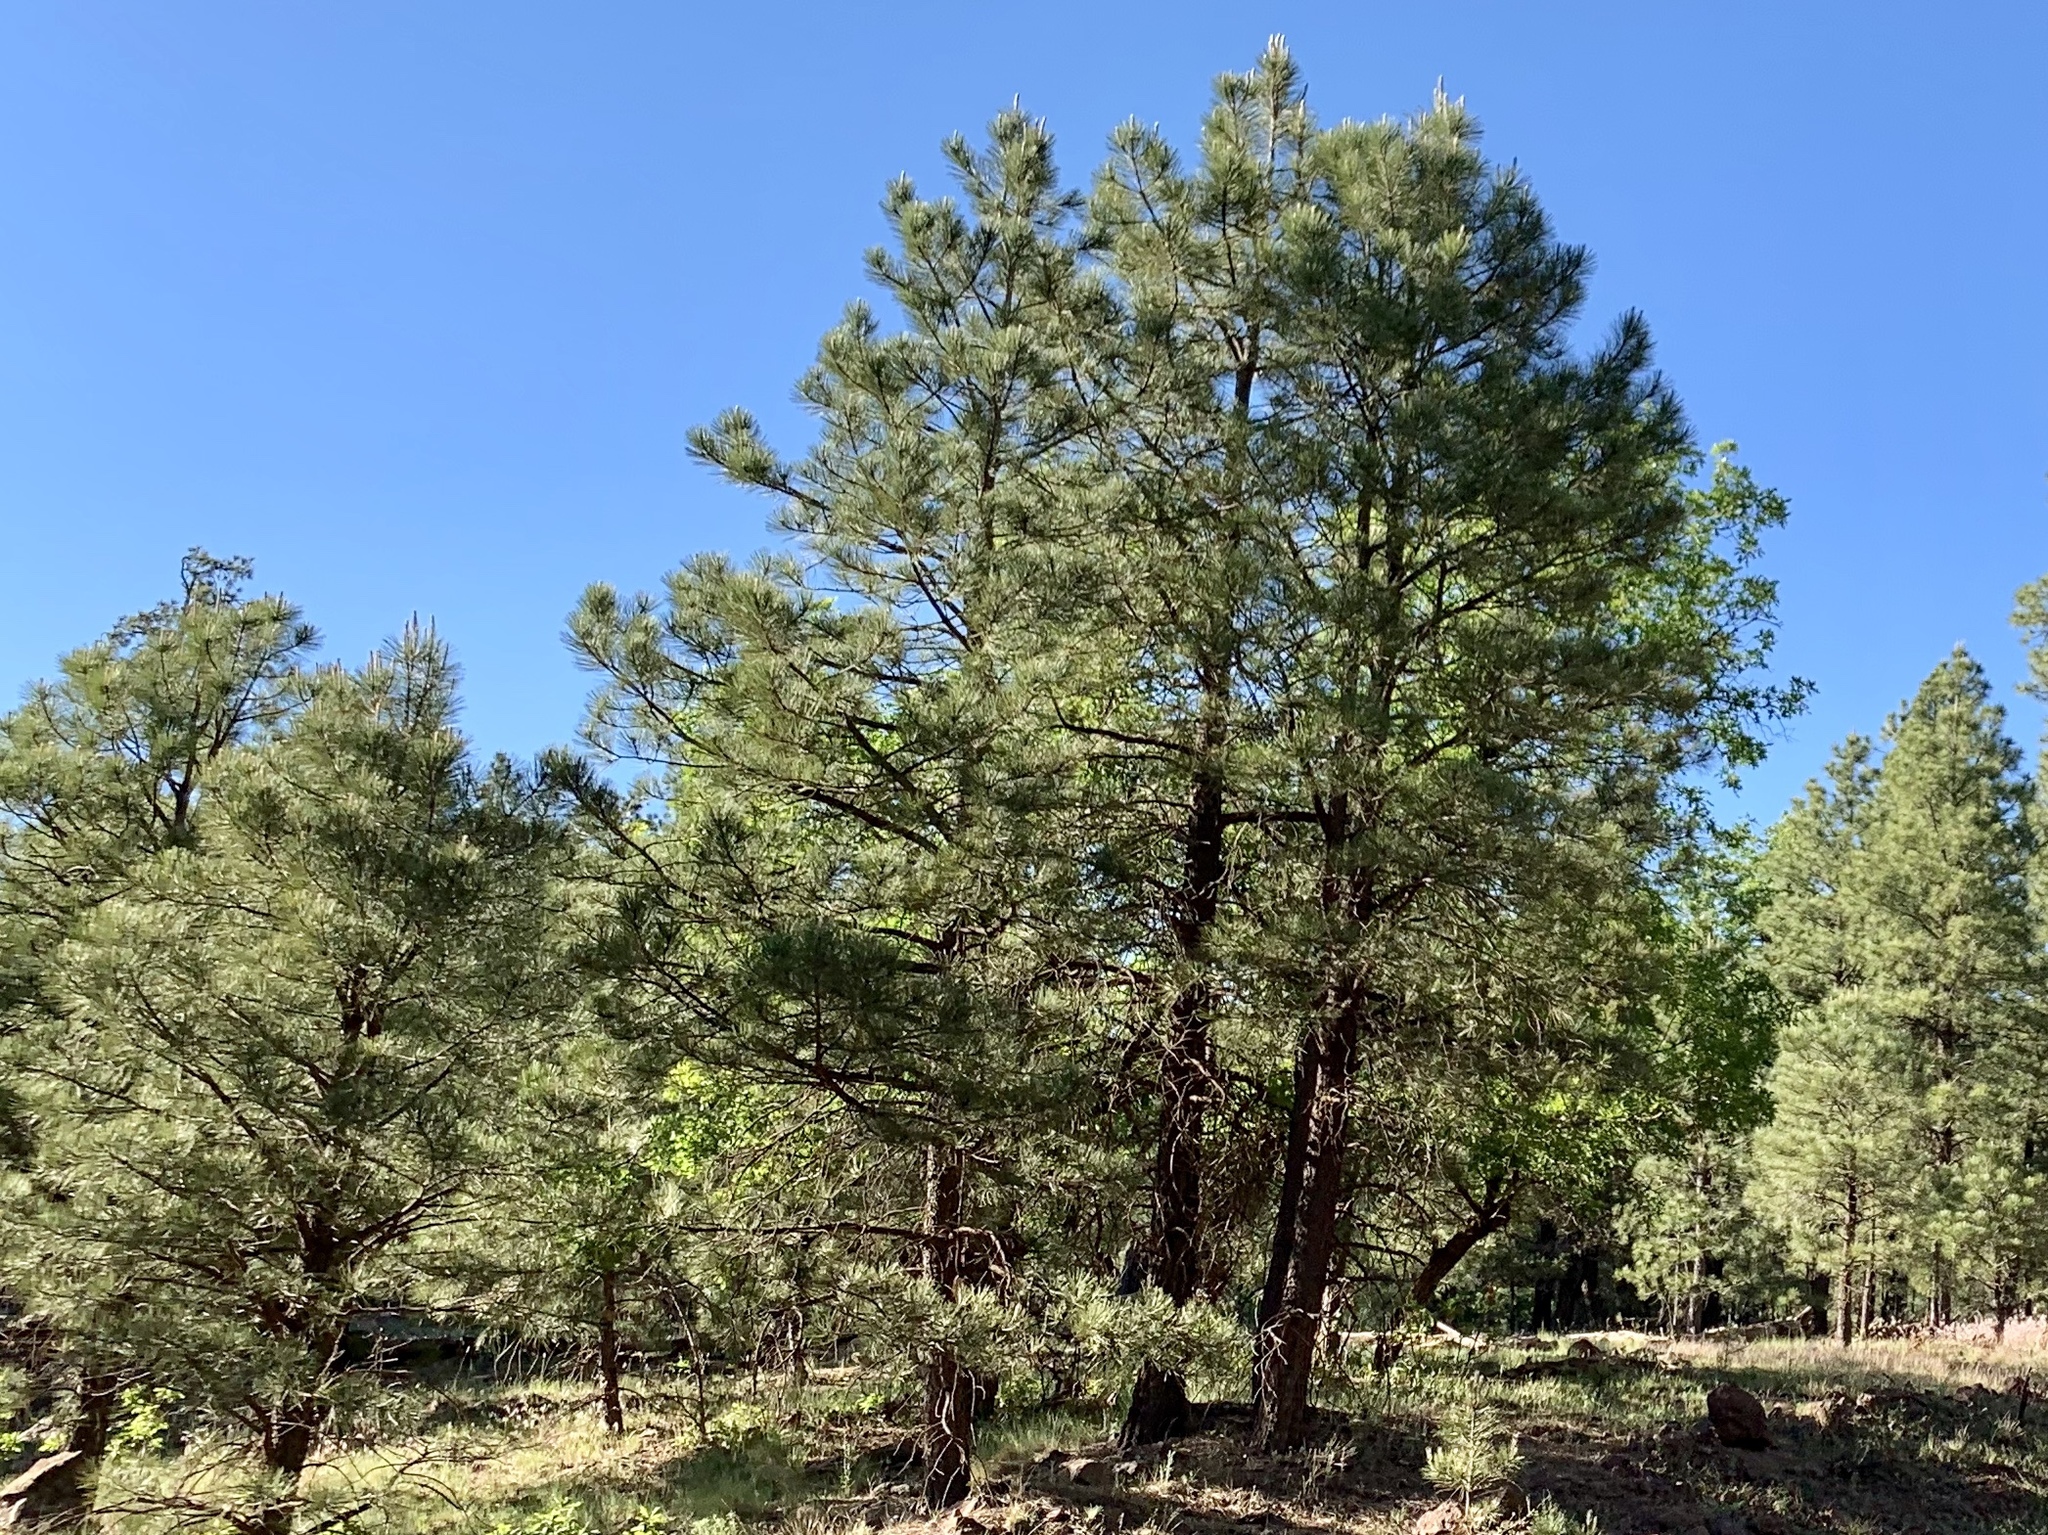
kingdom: Plantae
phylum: Tracheophyta
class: Pinopsida
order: Pinales
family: Pinaceae
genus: Pinus
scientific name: Pinus ponderosa
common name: Western yellow-pine
